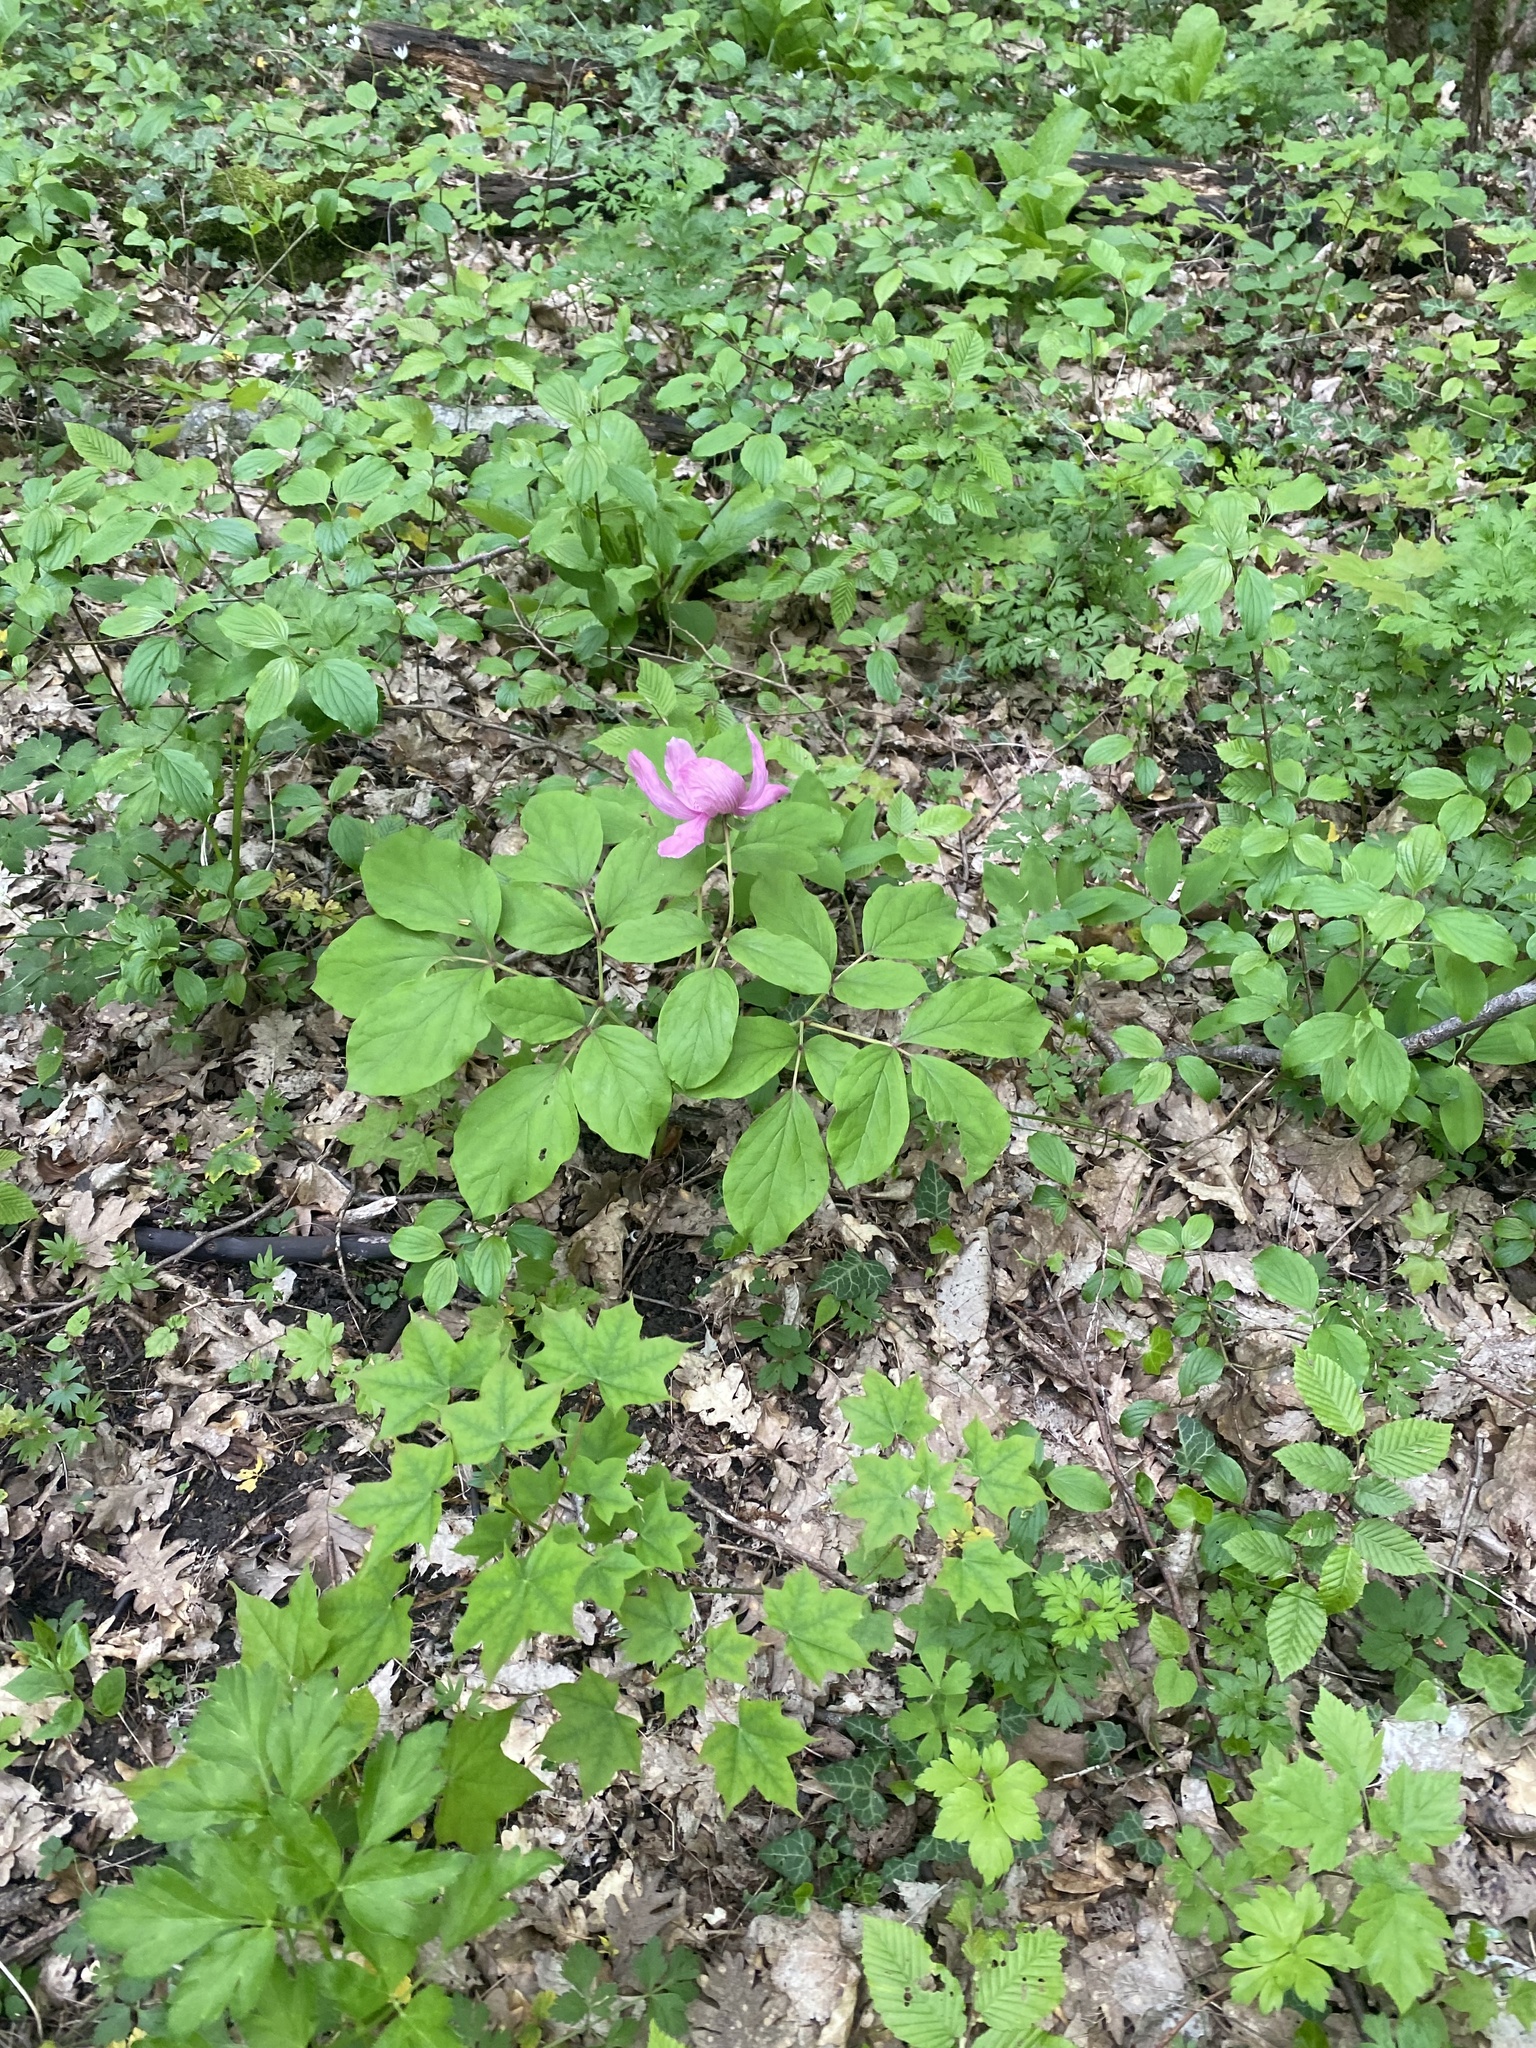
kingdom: Plantae
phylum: Tracheophyta
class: Magnoliopsida
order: Saxifragales
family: Paeoniaceae
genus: Paeonia
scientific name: Paeonia caucasica
